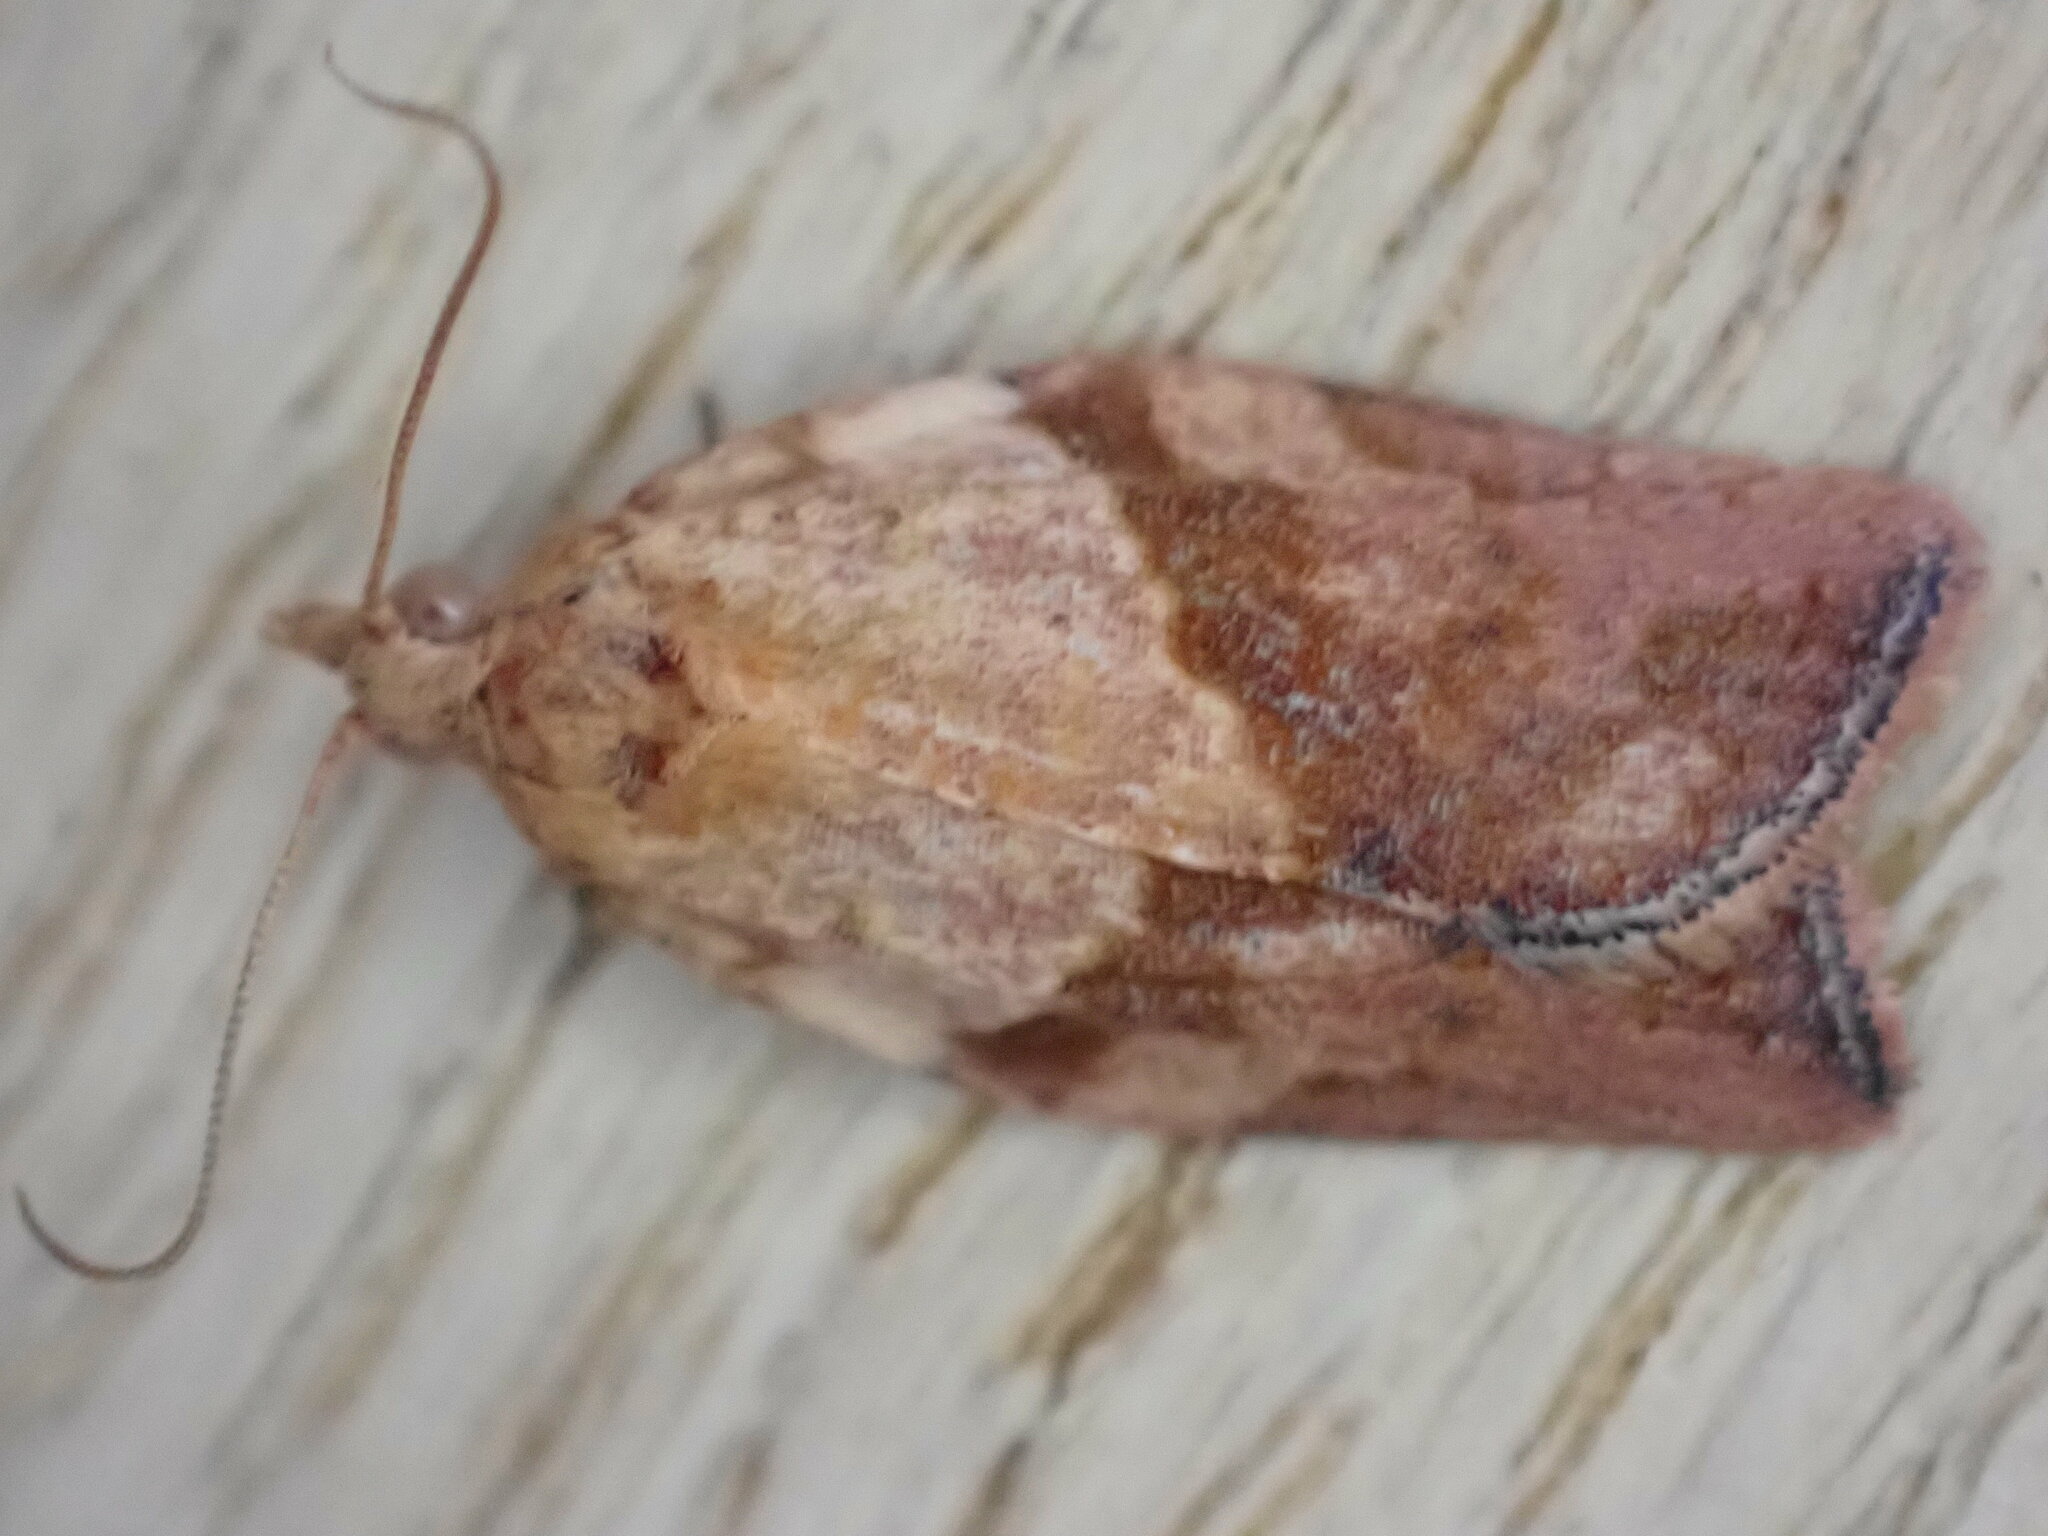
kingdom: Animalia
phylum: Arthropoda
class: Insecta
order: Lepidoptera
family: Tortricidae
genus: Epiphyas
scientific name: Epiphyas postvittana
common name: Light brown apple moth
